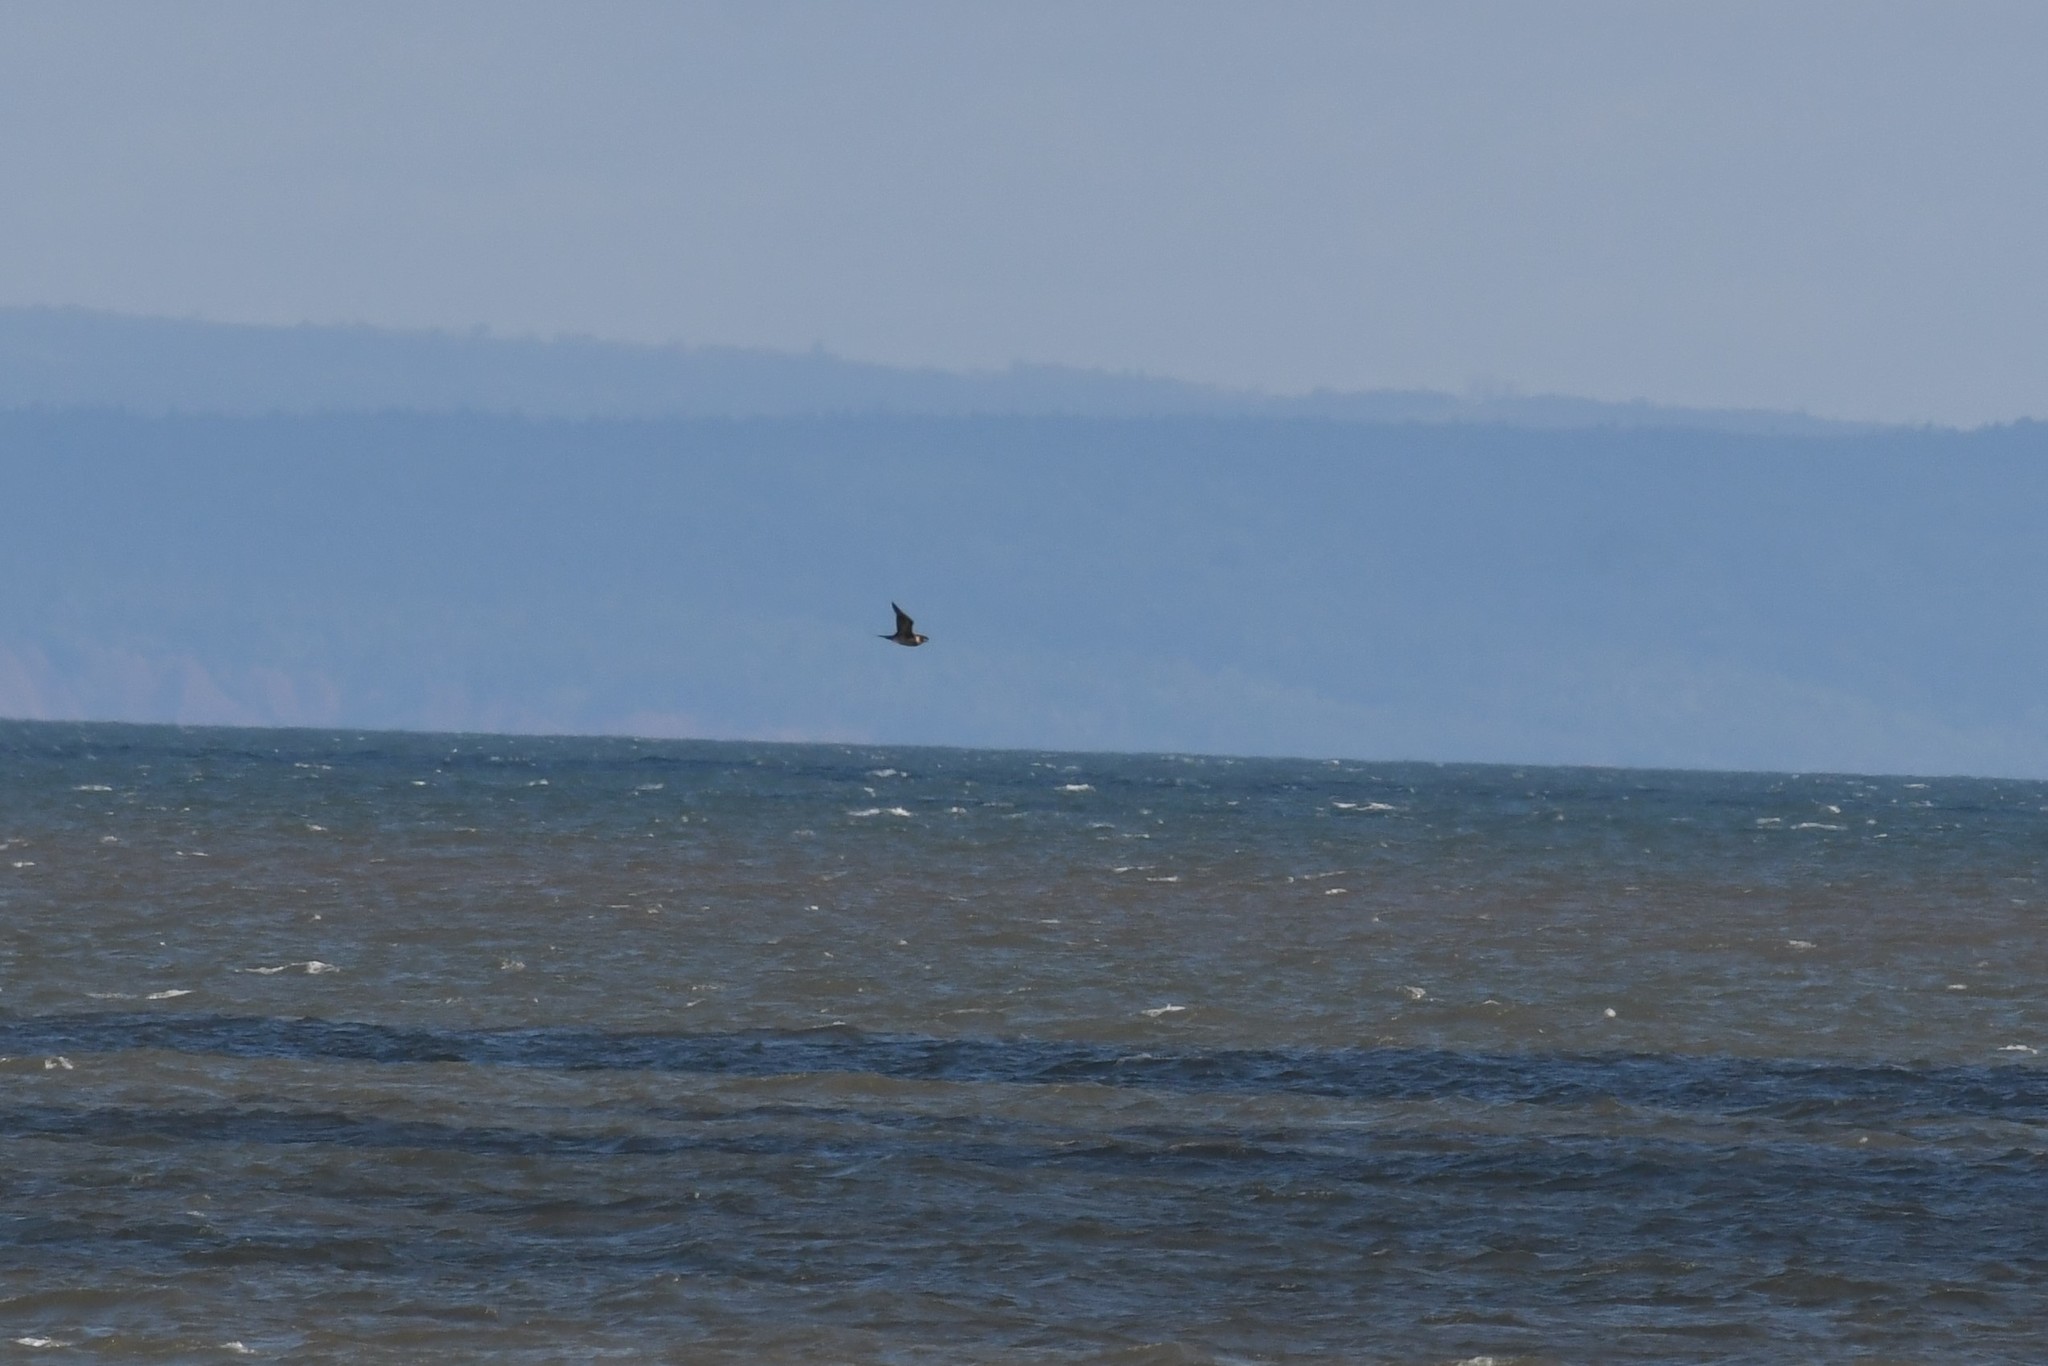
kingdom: Animalia
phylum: Chordata
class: Aves
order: Charadriiformes
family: Stercorariidae
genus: Stercorarius
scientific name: Stercorarius parasiticus
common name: Parasitic jaeger
